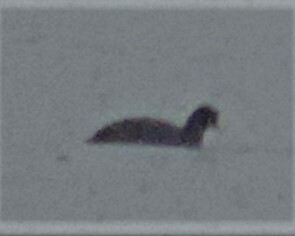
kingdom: Animalia
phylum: Chordata
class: Aves
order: Gruiformes
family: Rallidae
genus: Fulica
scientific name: Fulica americana
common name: American coot
